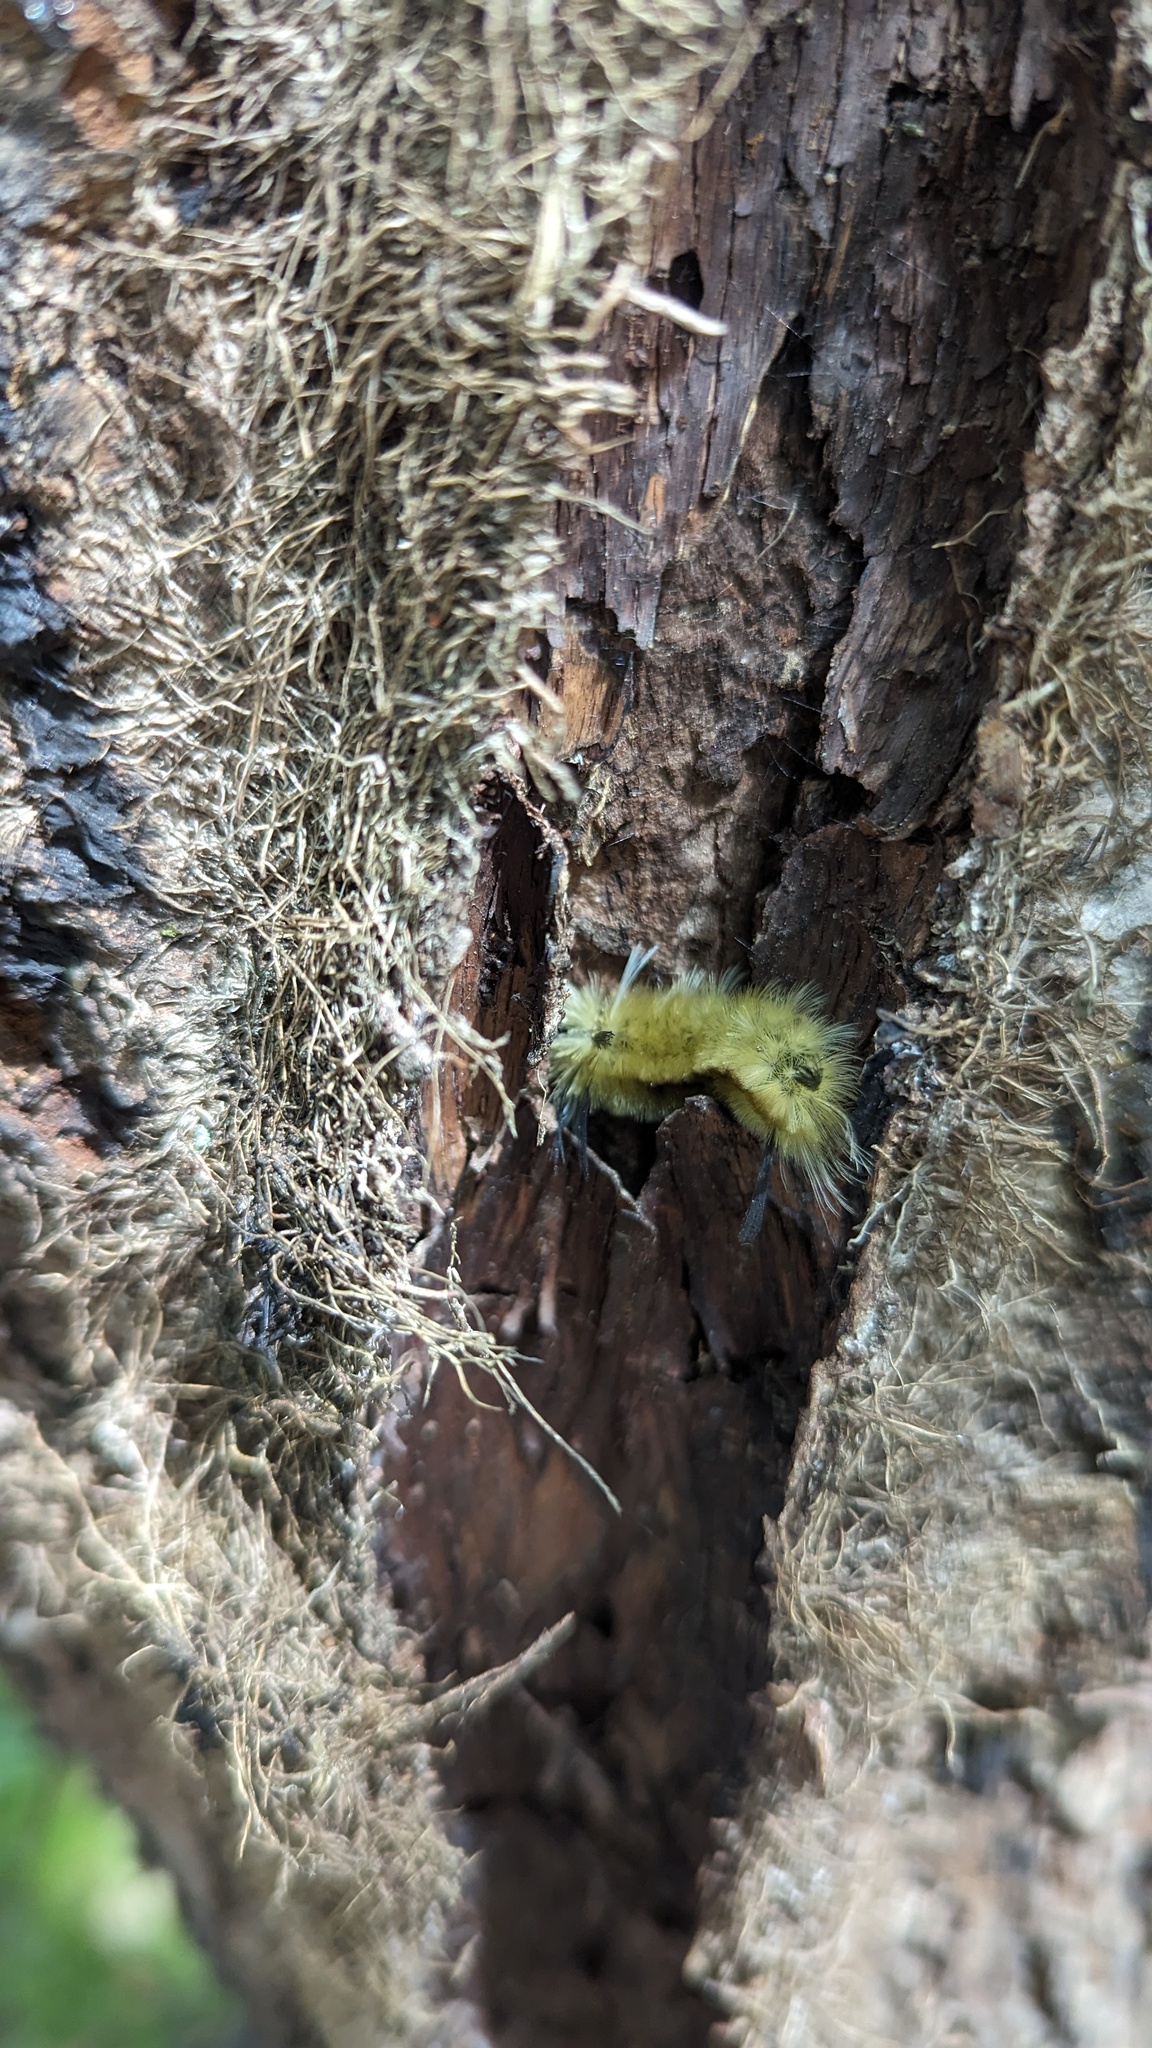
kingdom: Animalia
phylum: Arthropoda
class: Insecta
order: Lepidoptera
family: Erebidae
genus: Halysidota
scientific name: Halysidota tessellaris
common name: Banded tussock moth
